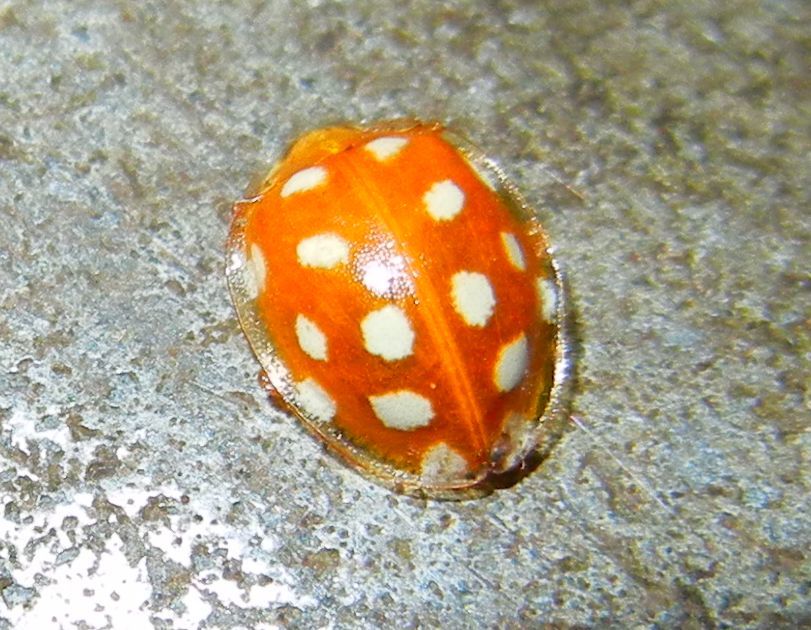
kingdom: Animalia
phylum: Arthropoda
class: Insecta
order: Coleoptera
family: Coccinellidae
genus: Halyzia
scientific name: Halyzia sedecimguttata
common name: Orange ladybird
